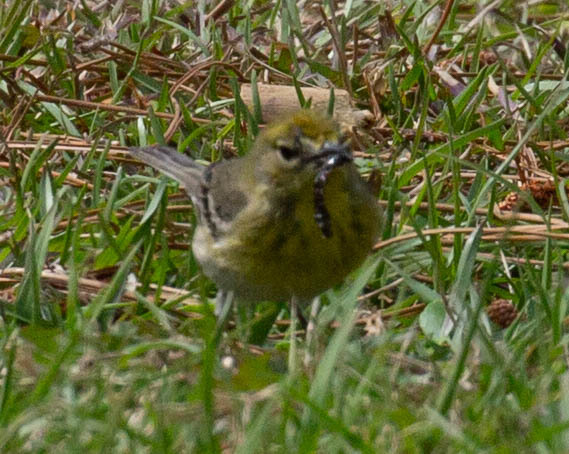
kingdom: Animalia
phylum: Chordata
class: Aves
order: Passeriformes
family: Parulidae
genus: Setophaga
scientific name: Setophaga pinus
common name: Pine warbler
